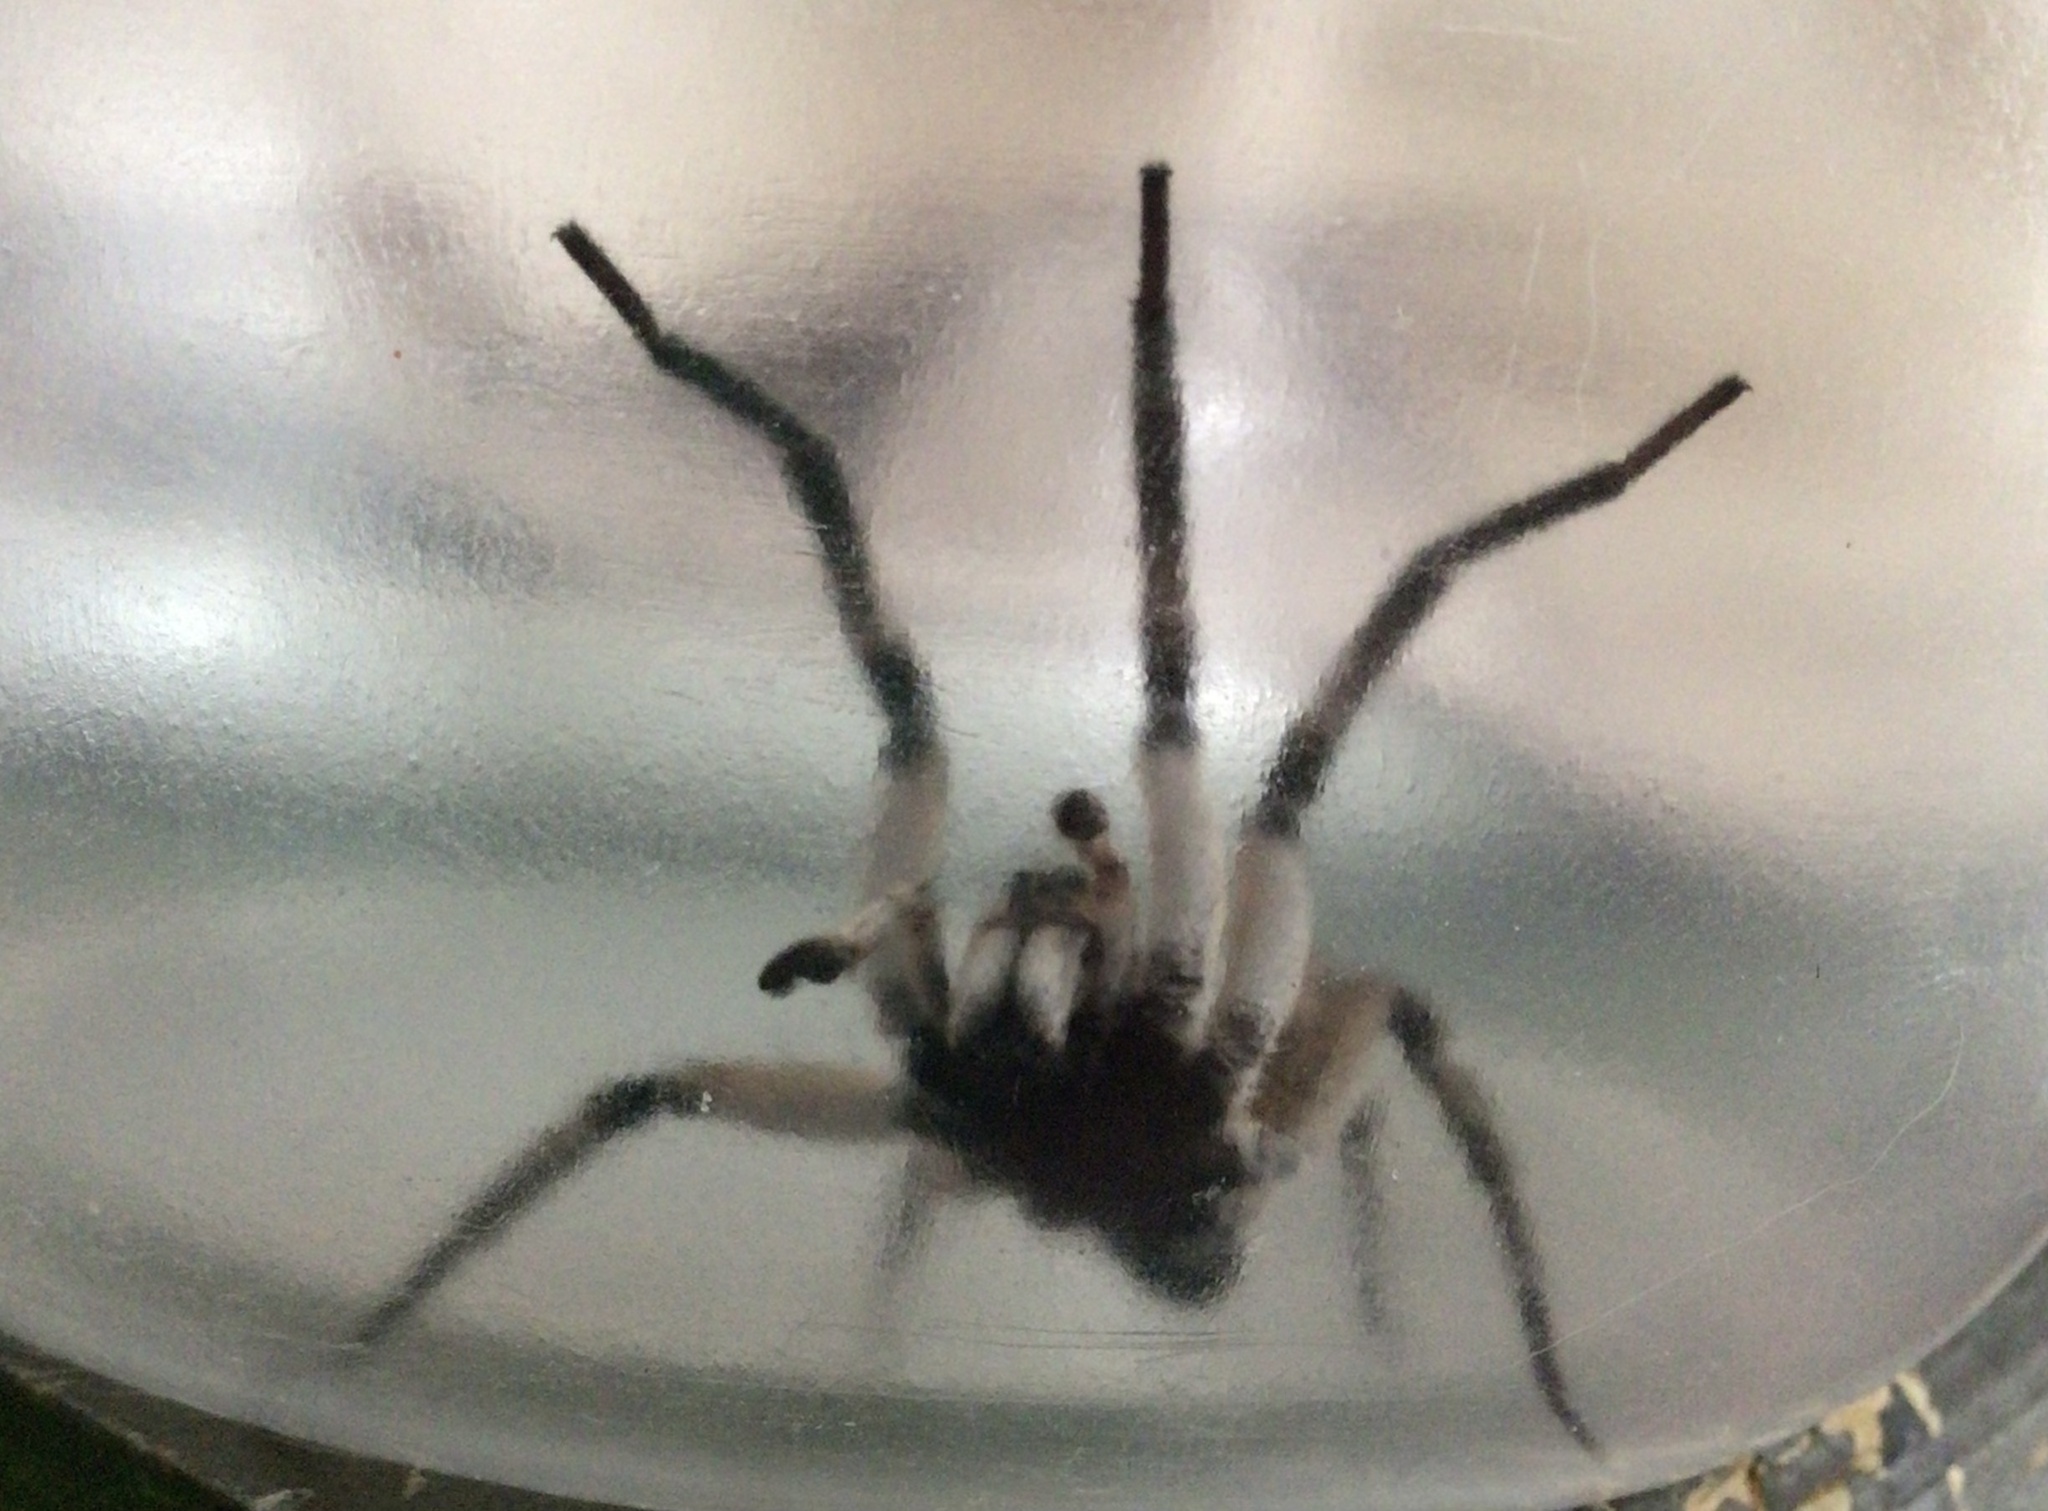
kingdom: Animalia
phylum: Arthropoda
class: Arachnida
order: Araneae
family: Lycosidae
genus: Portacosa
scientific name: Portacosa cinerea
